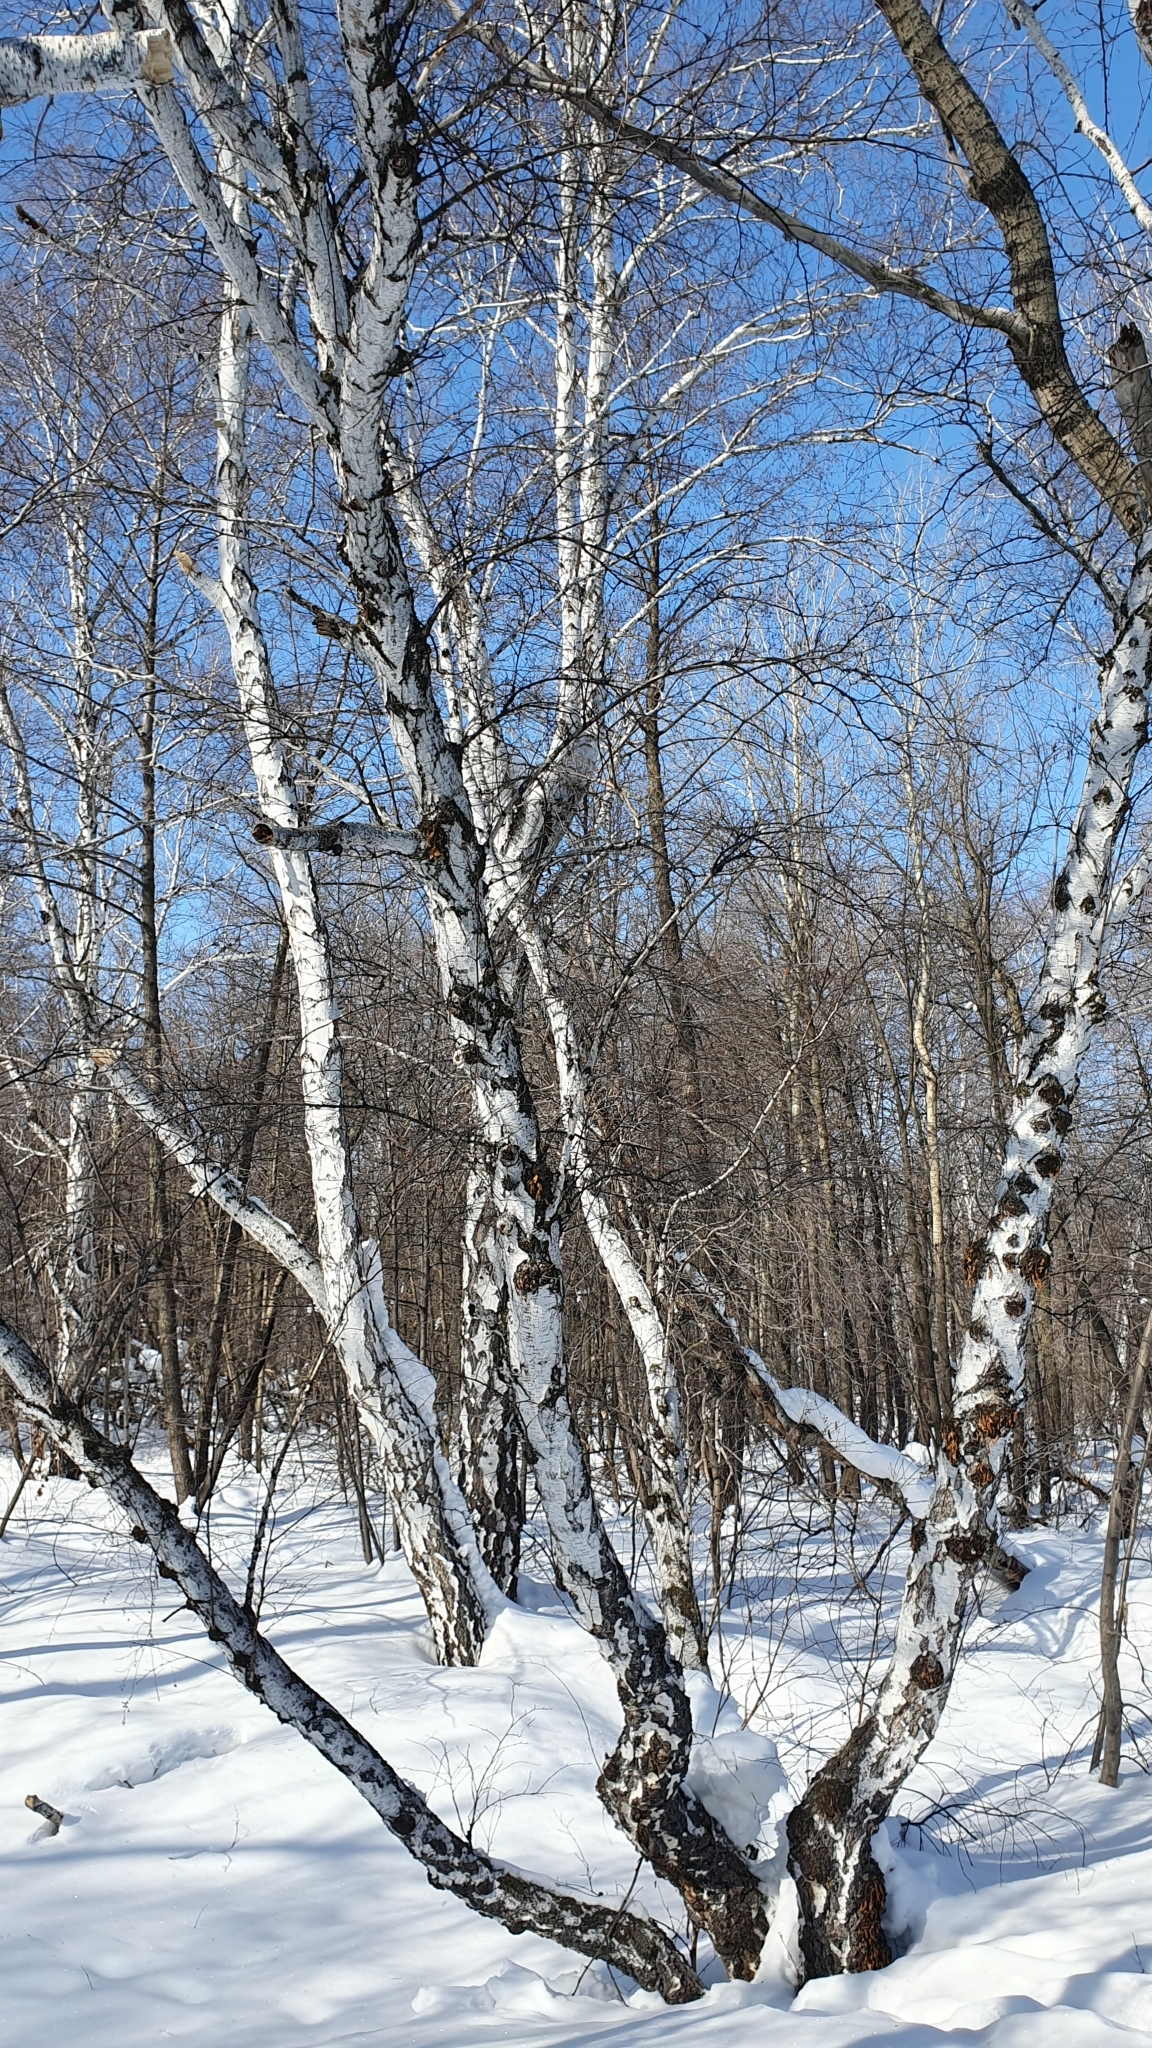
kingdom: Plantae
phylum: Tracheophyta
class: Magnoliopsida
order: Fagales
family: Betulaceae
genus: Betula
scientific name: Betula pendula
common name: Silver birch
